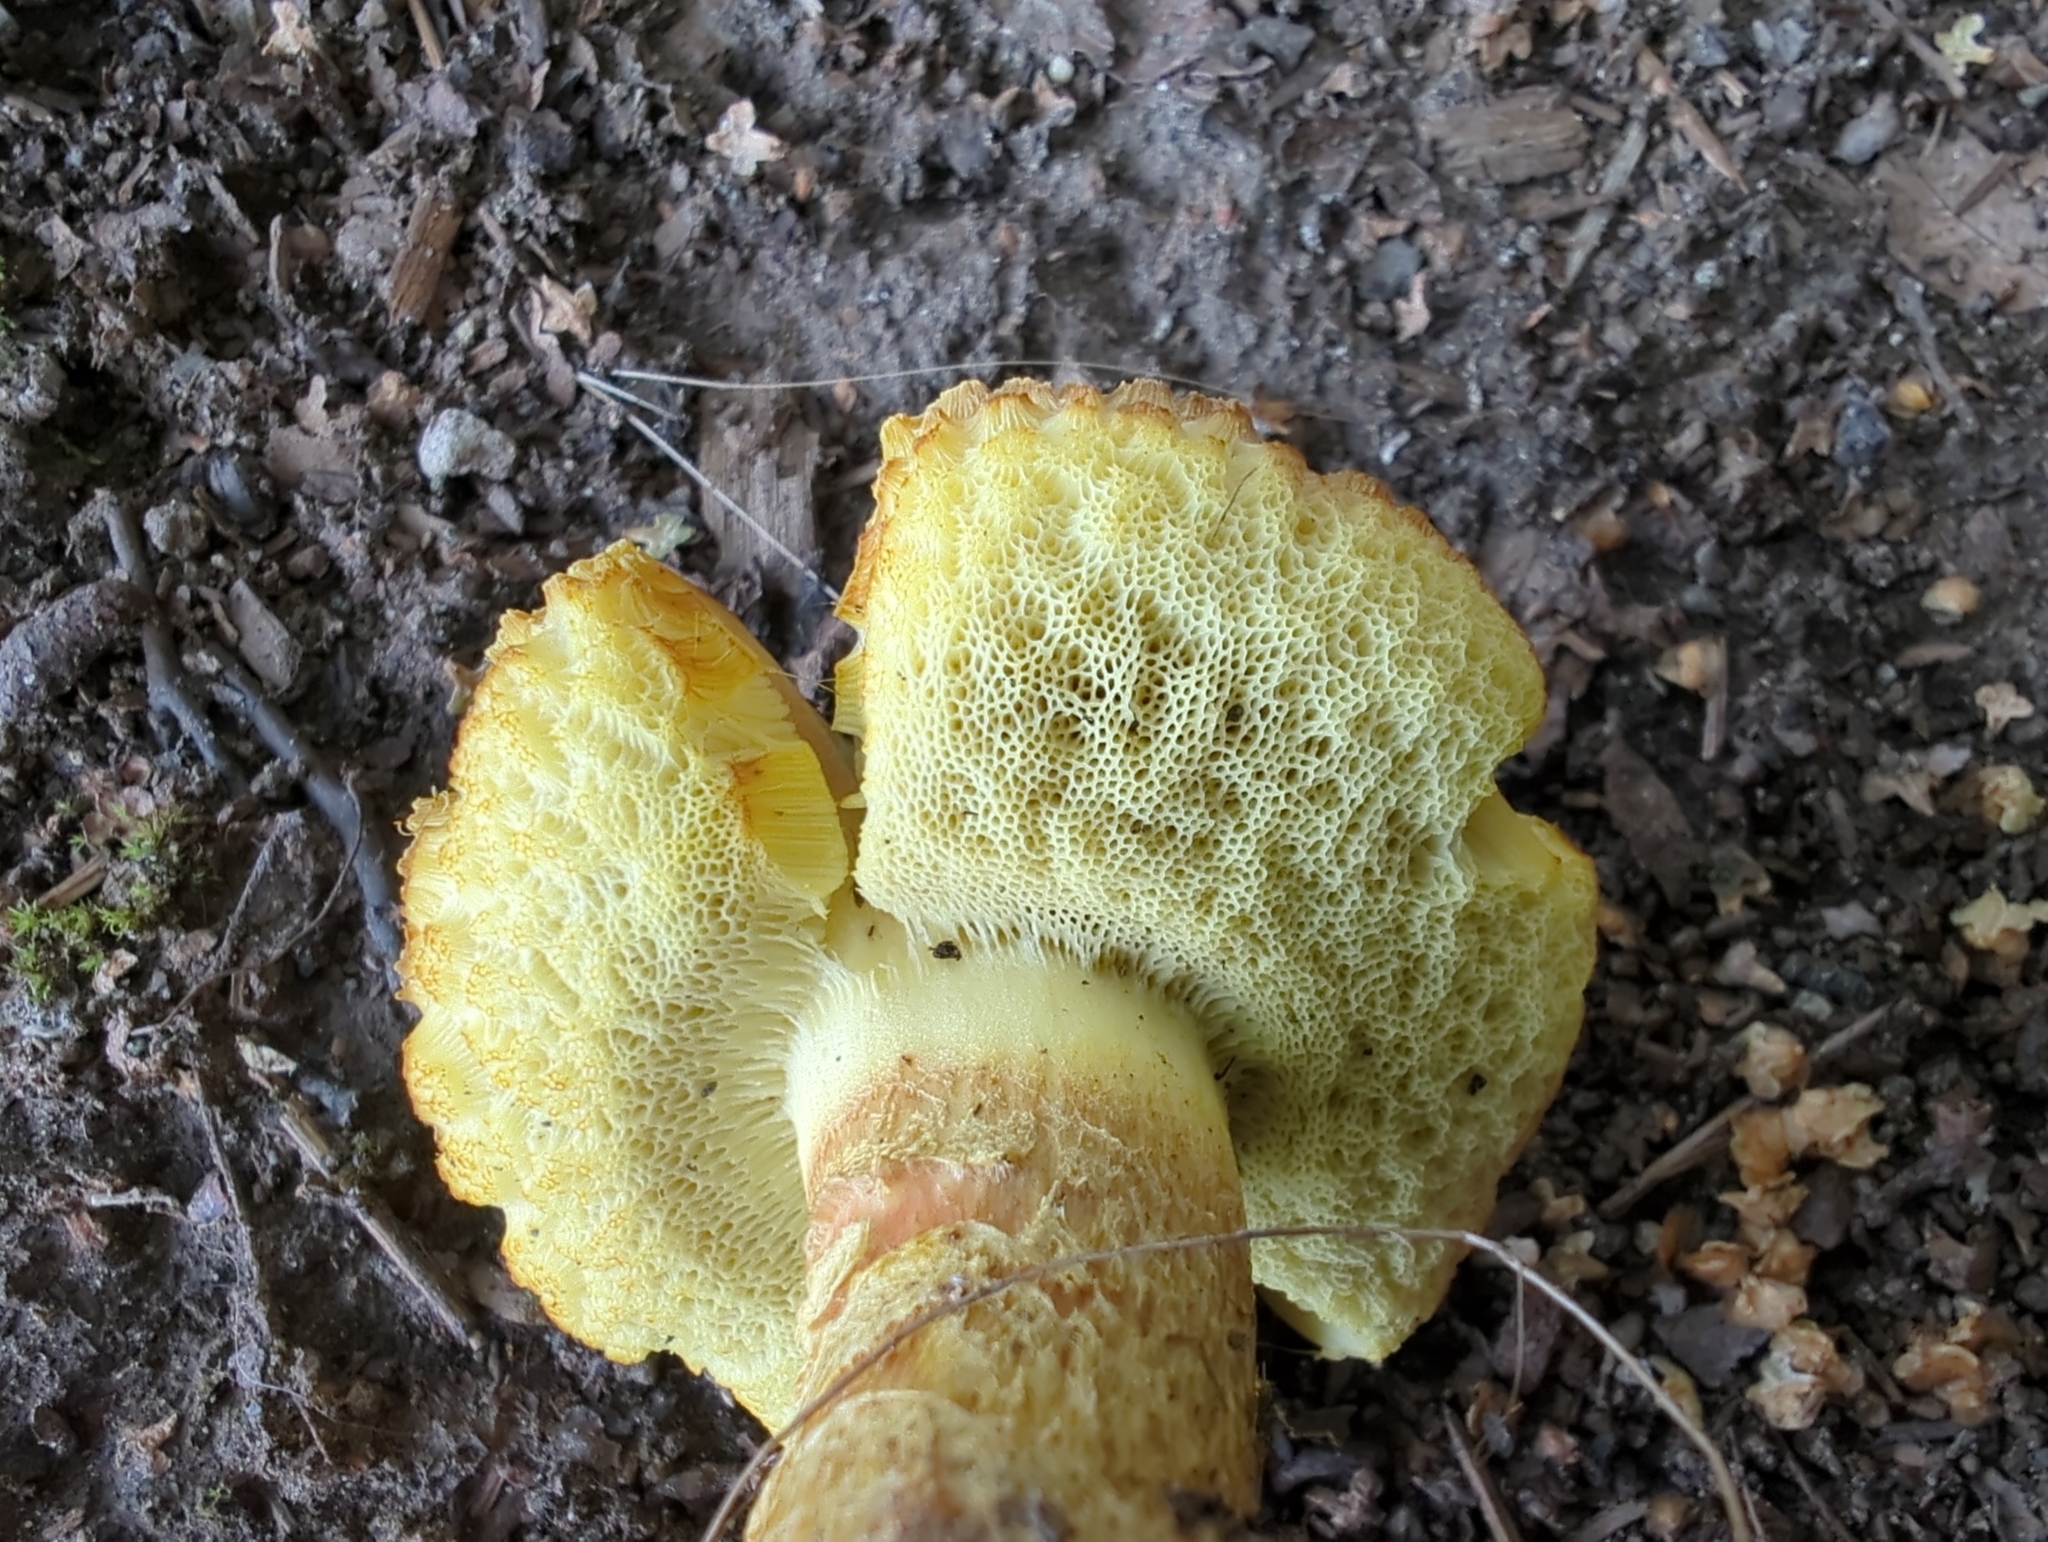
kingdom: Fungi
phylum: Basidiomycota
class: Agaricomycetes
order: Boletales
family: Boletaceae
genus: Hemileccinum
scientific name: Hemileccinum subglabripes
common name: Smoothish-stemmed bolete
